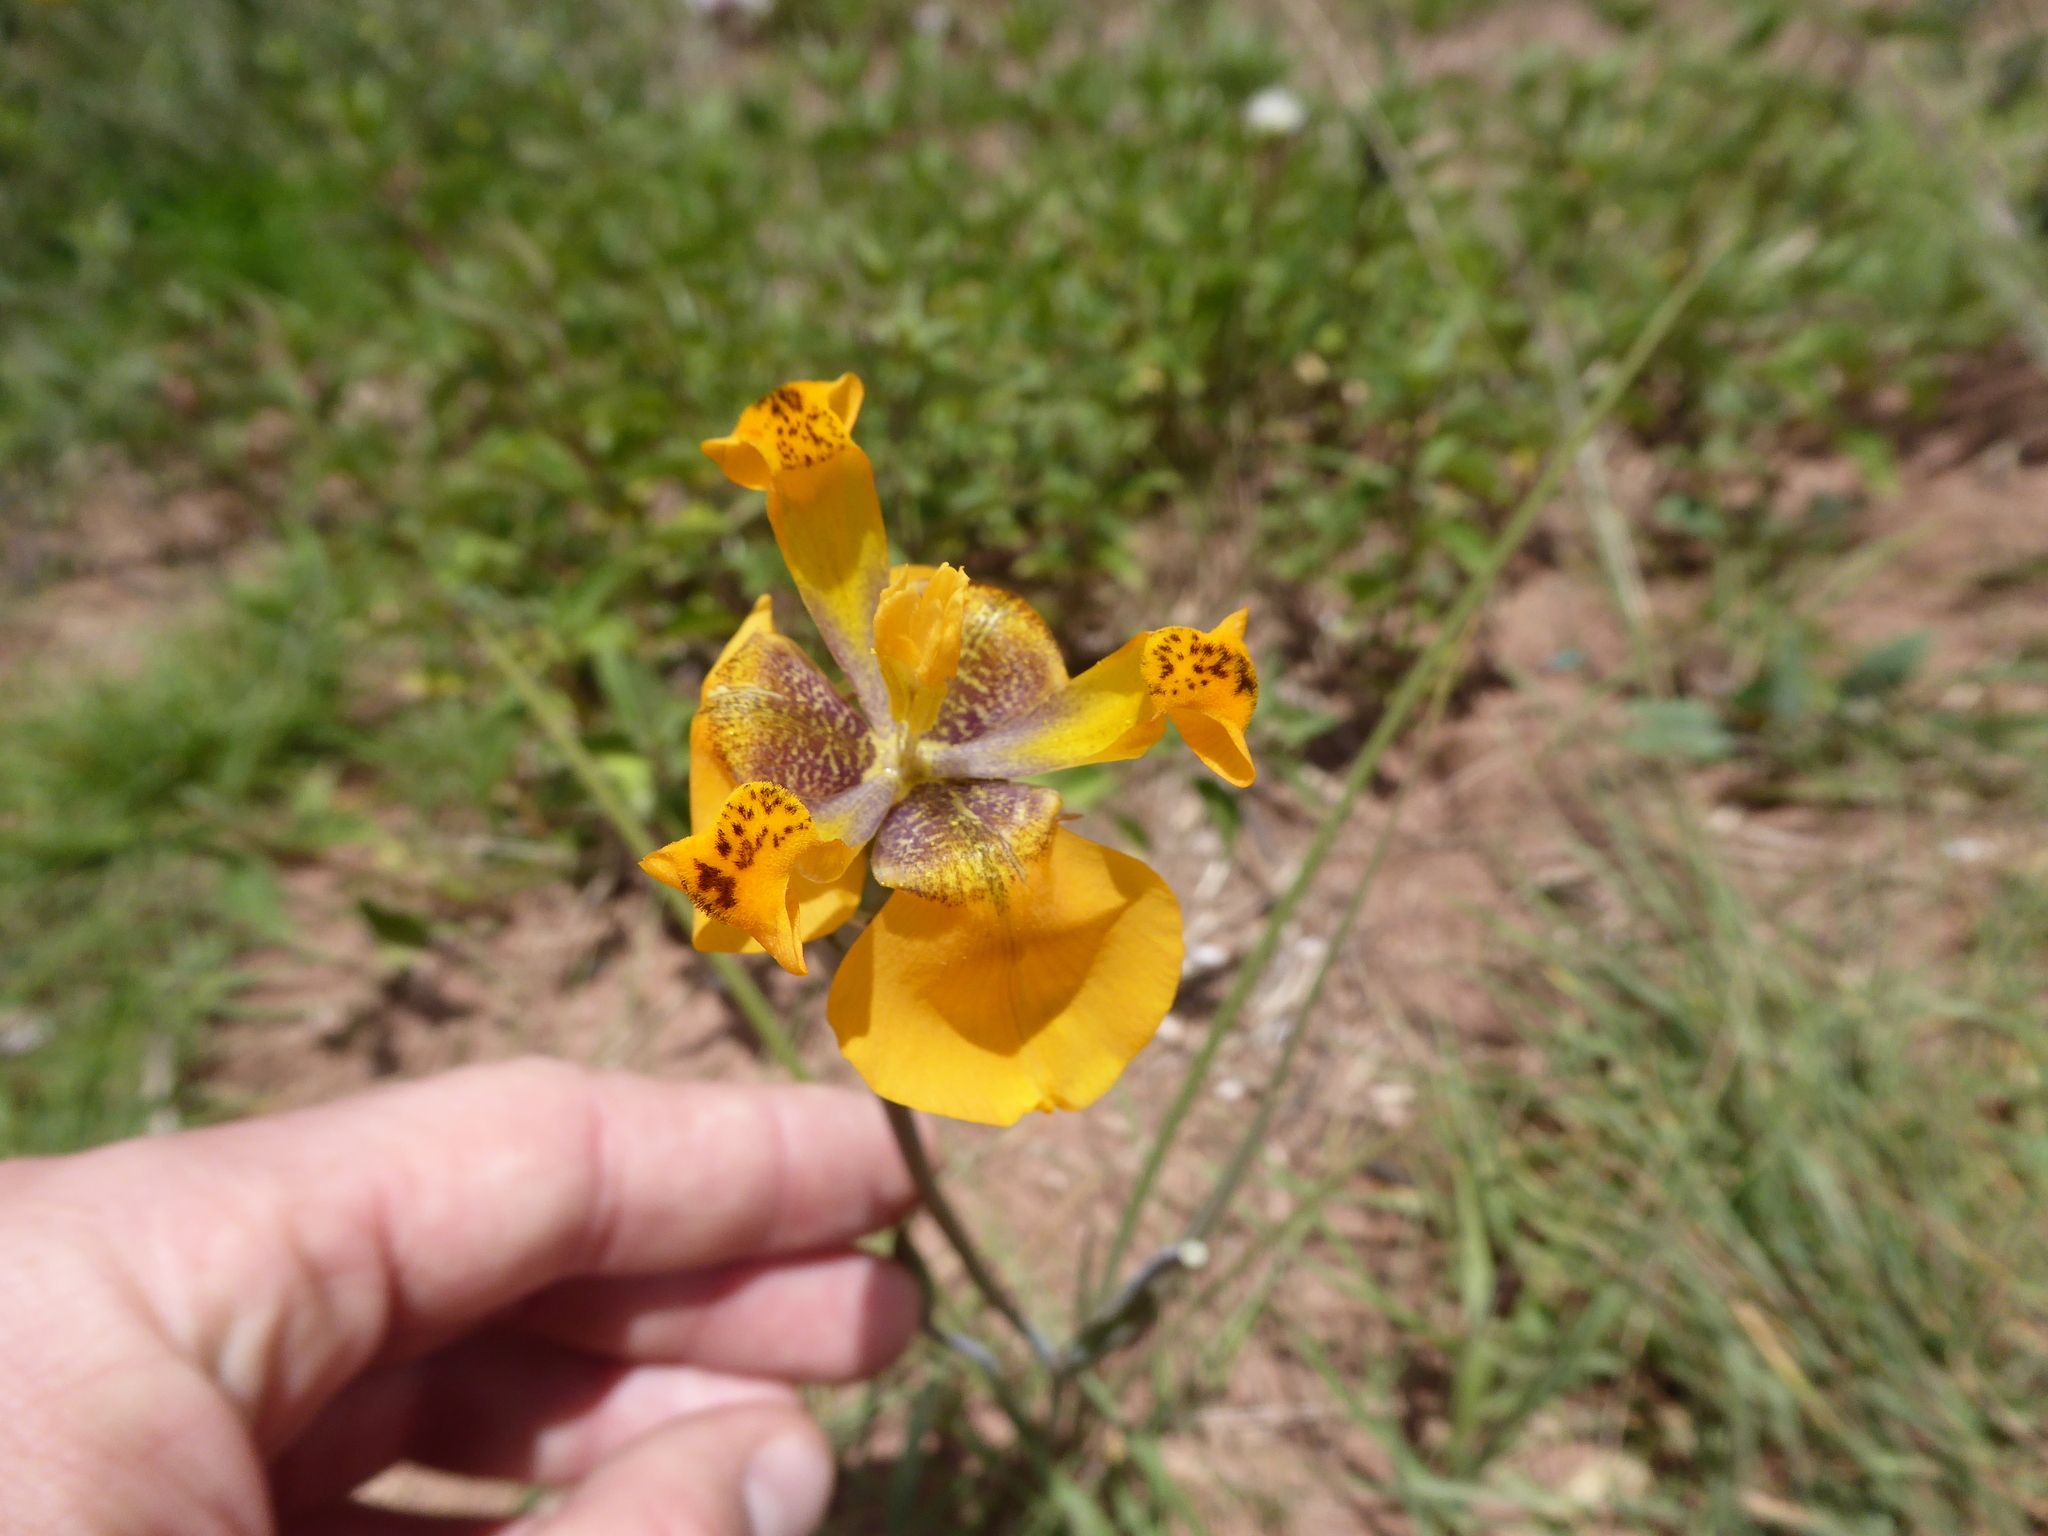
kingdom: Plantae
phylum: Tracheophyta
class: Liliopsida
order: Asparagales
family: Iridaceae
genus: Hesperoxiphion
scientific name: Hesperoxiphion pardalis
